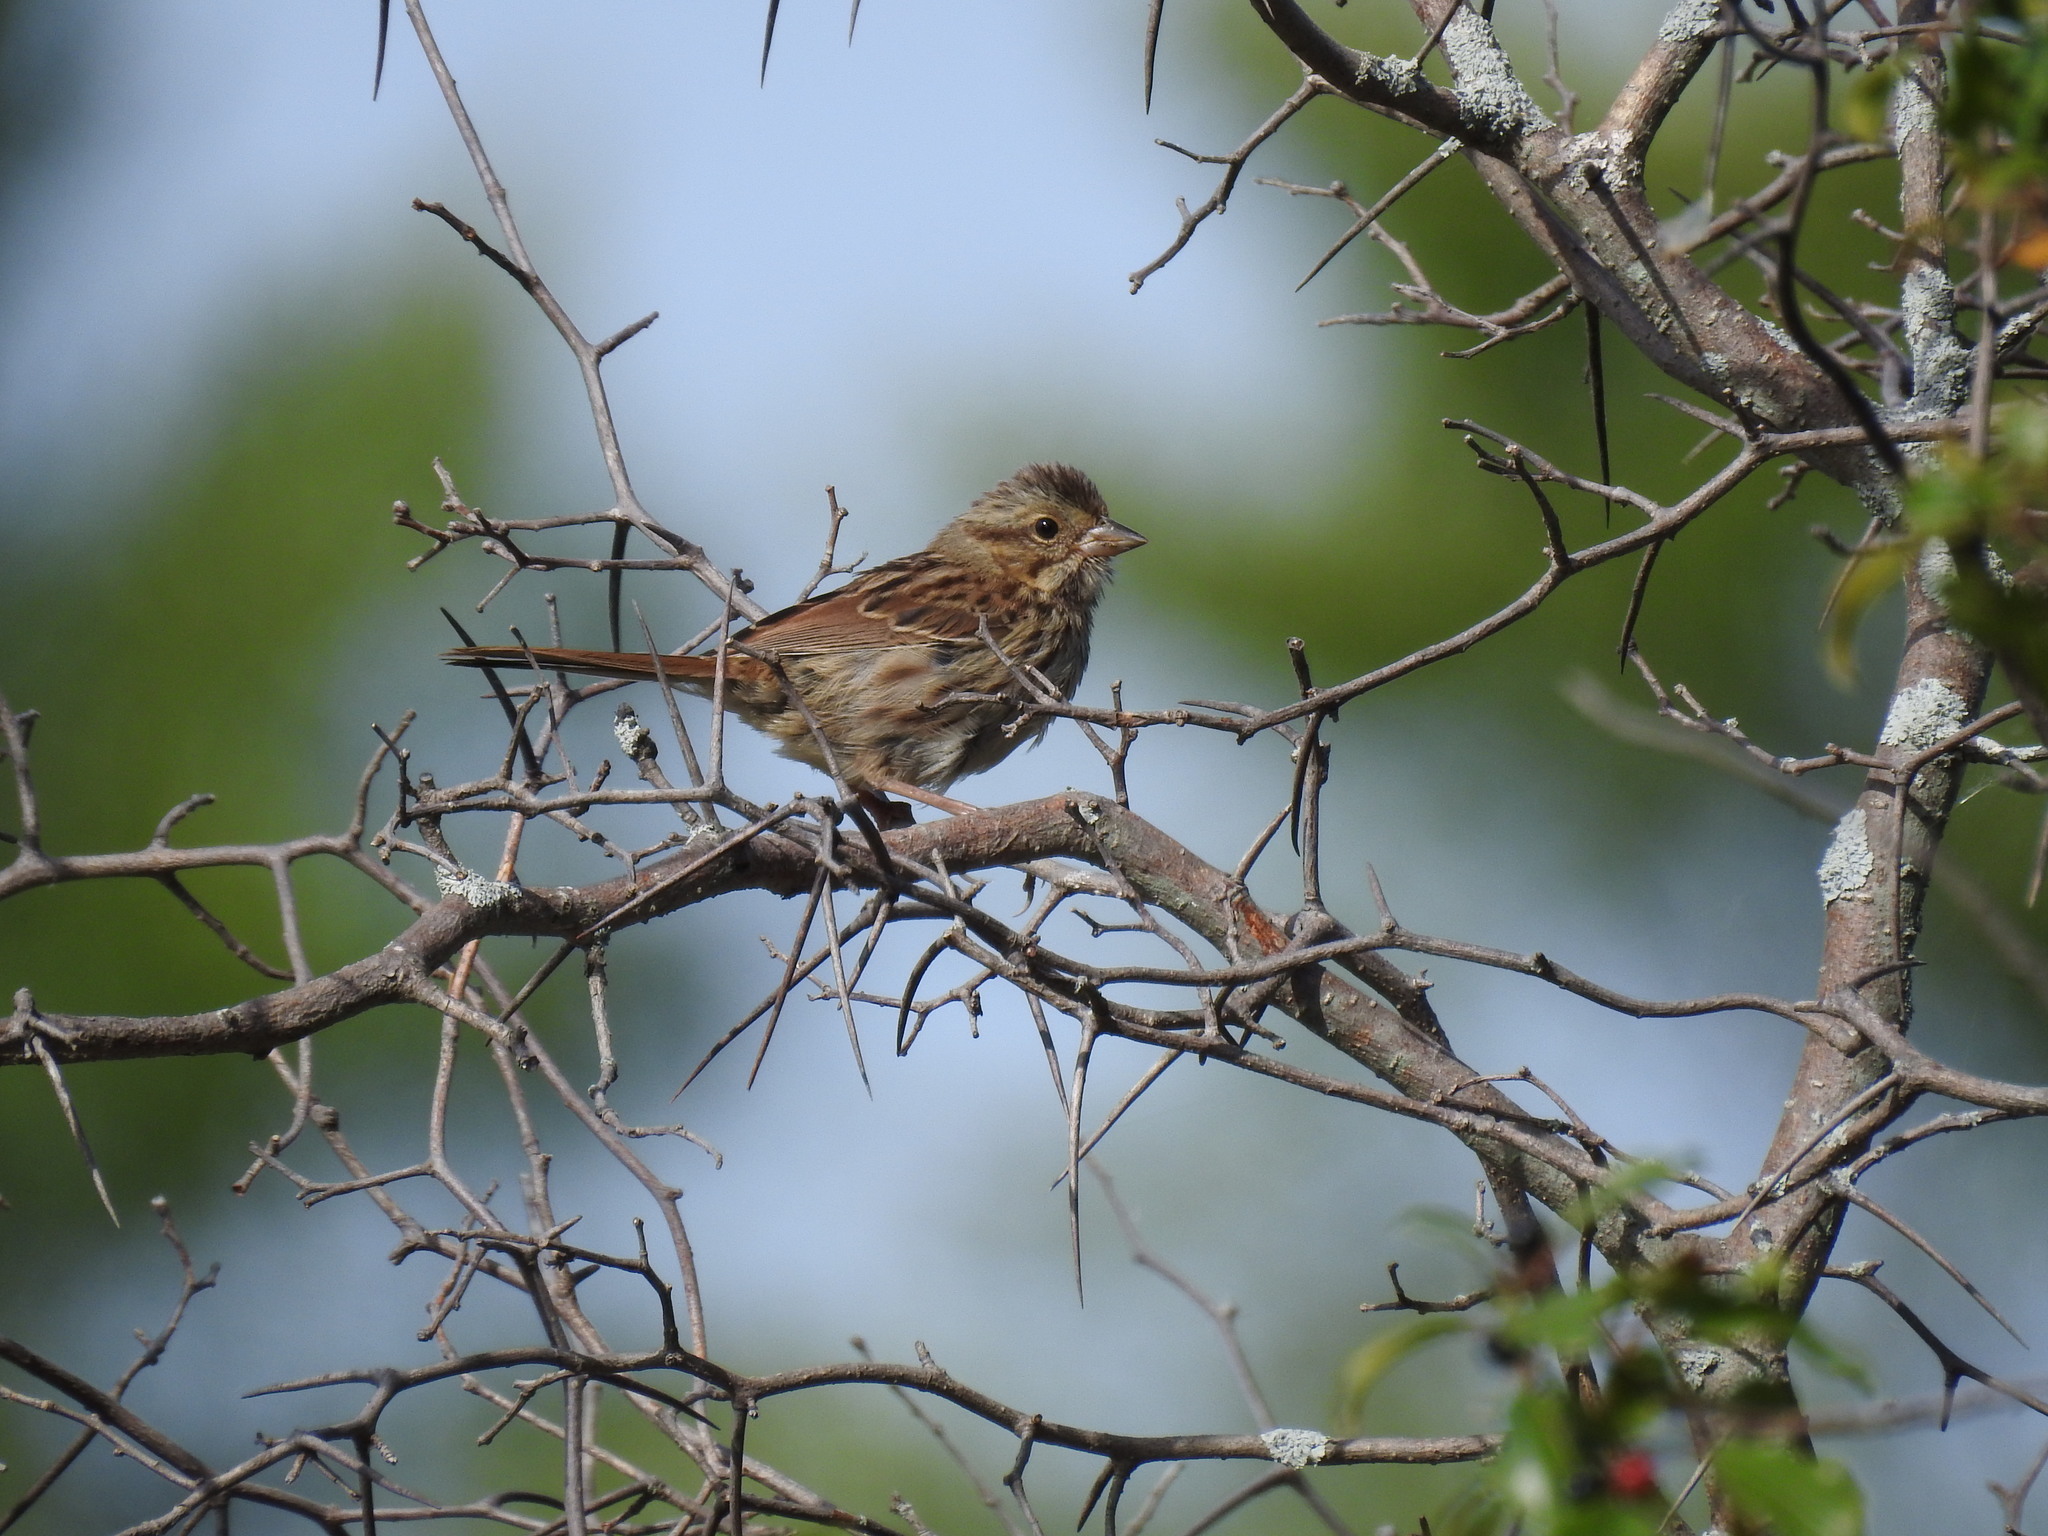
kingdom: Animalia
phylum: Chordata
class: Aves
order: Passeriformes
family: Passerellidae
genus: Melospiza
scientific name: Melospiza melodia
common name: Song sparrow
